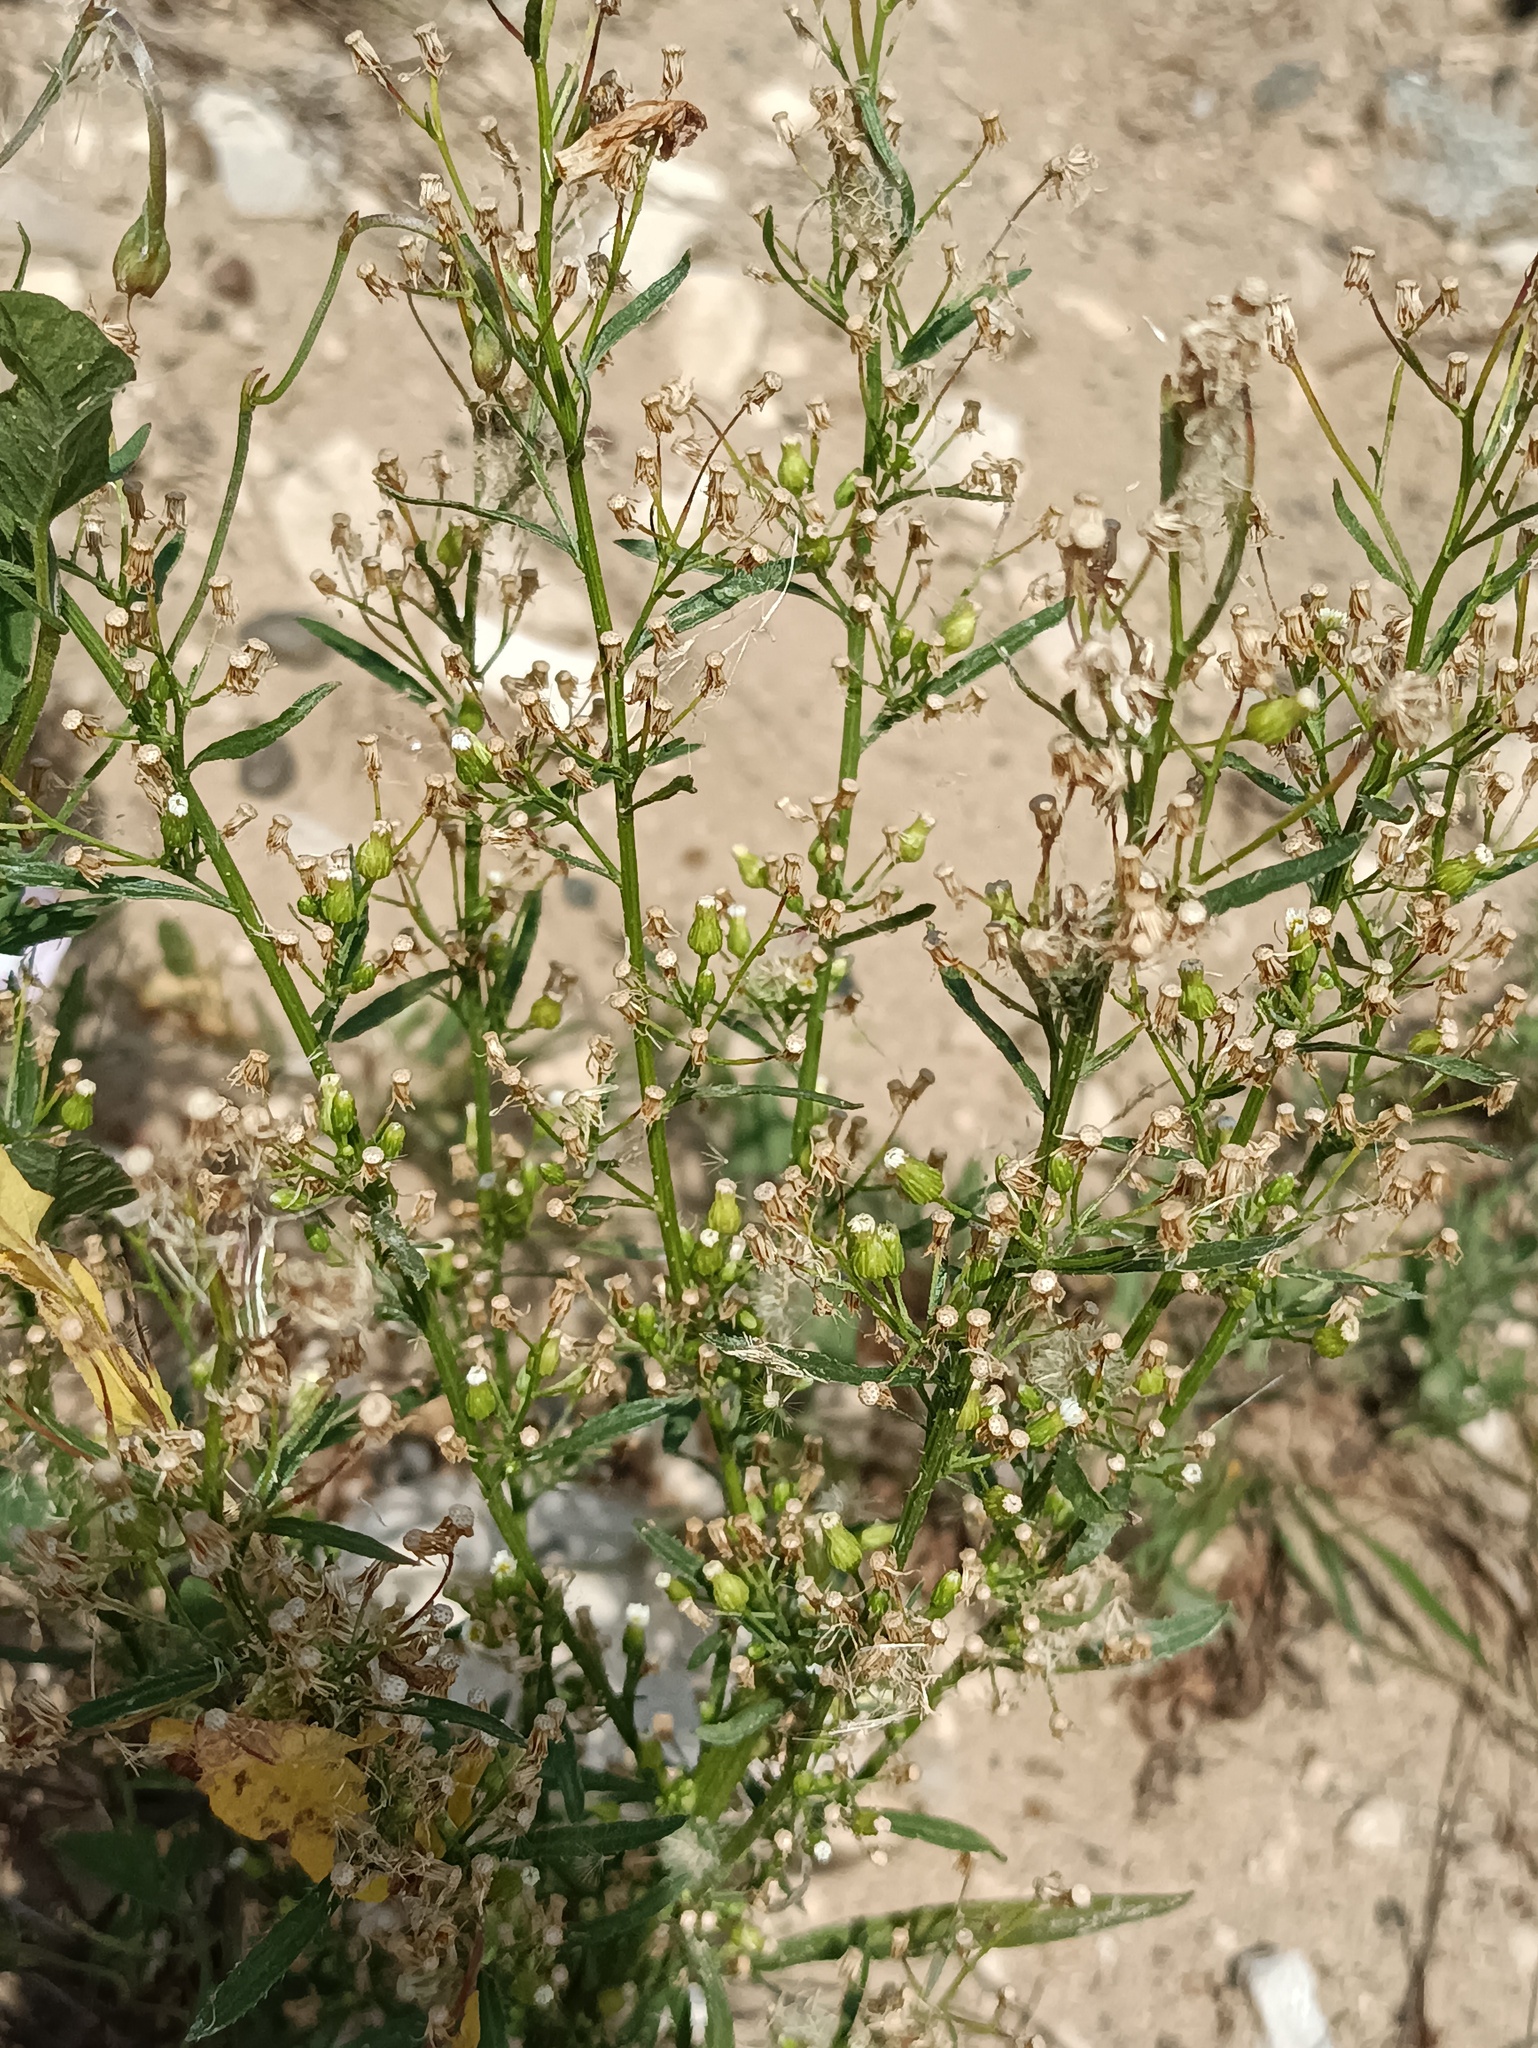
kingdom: Plantae
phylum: Tracheophyta
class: Magnoliopsida
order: Asterales
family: Asteraceae
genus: Erigeron
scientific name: Erigeron canadensis
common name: Canadian fleabane
